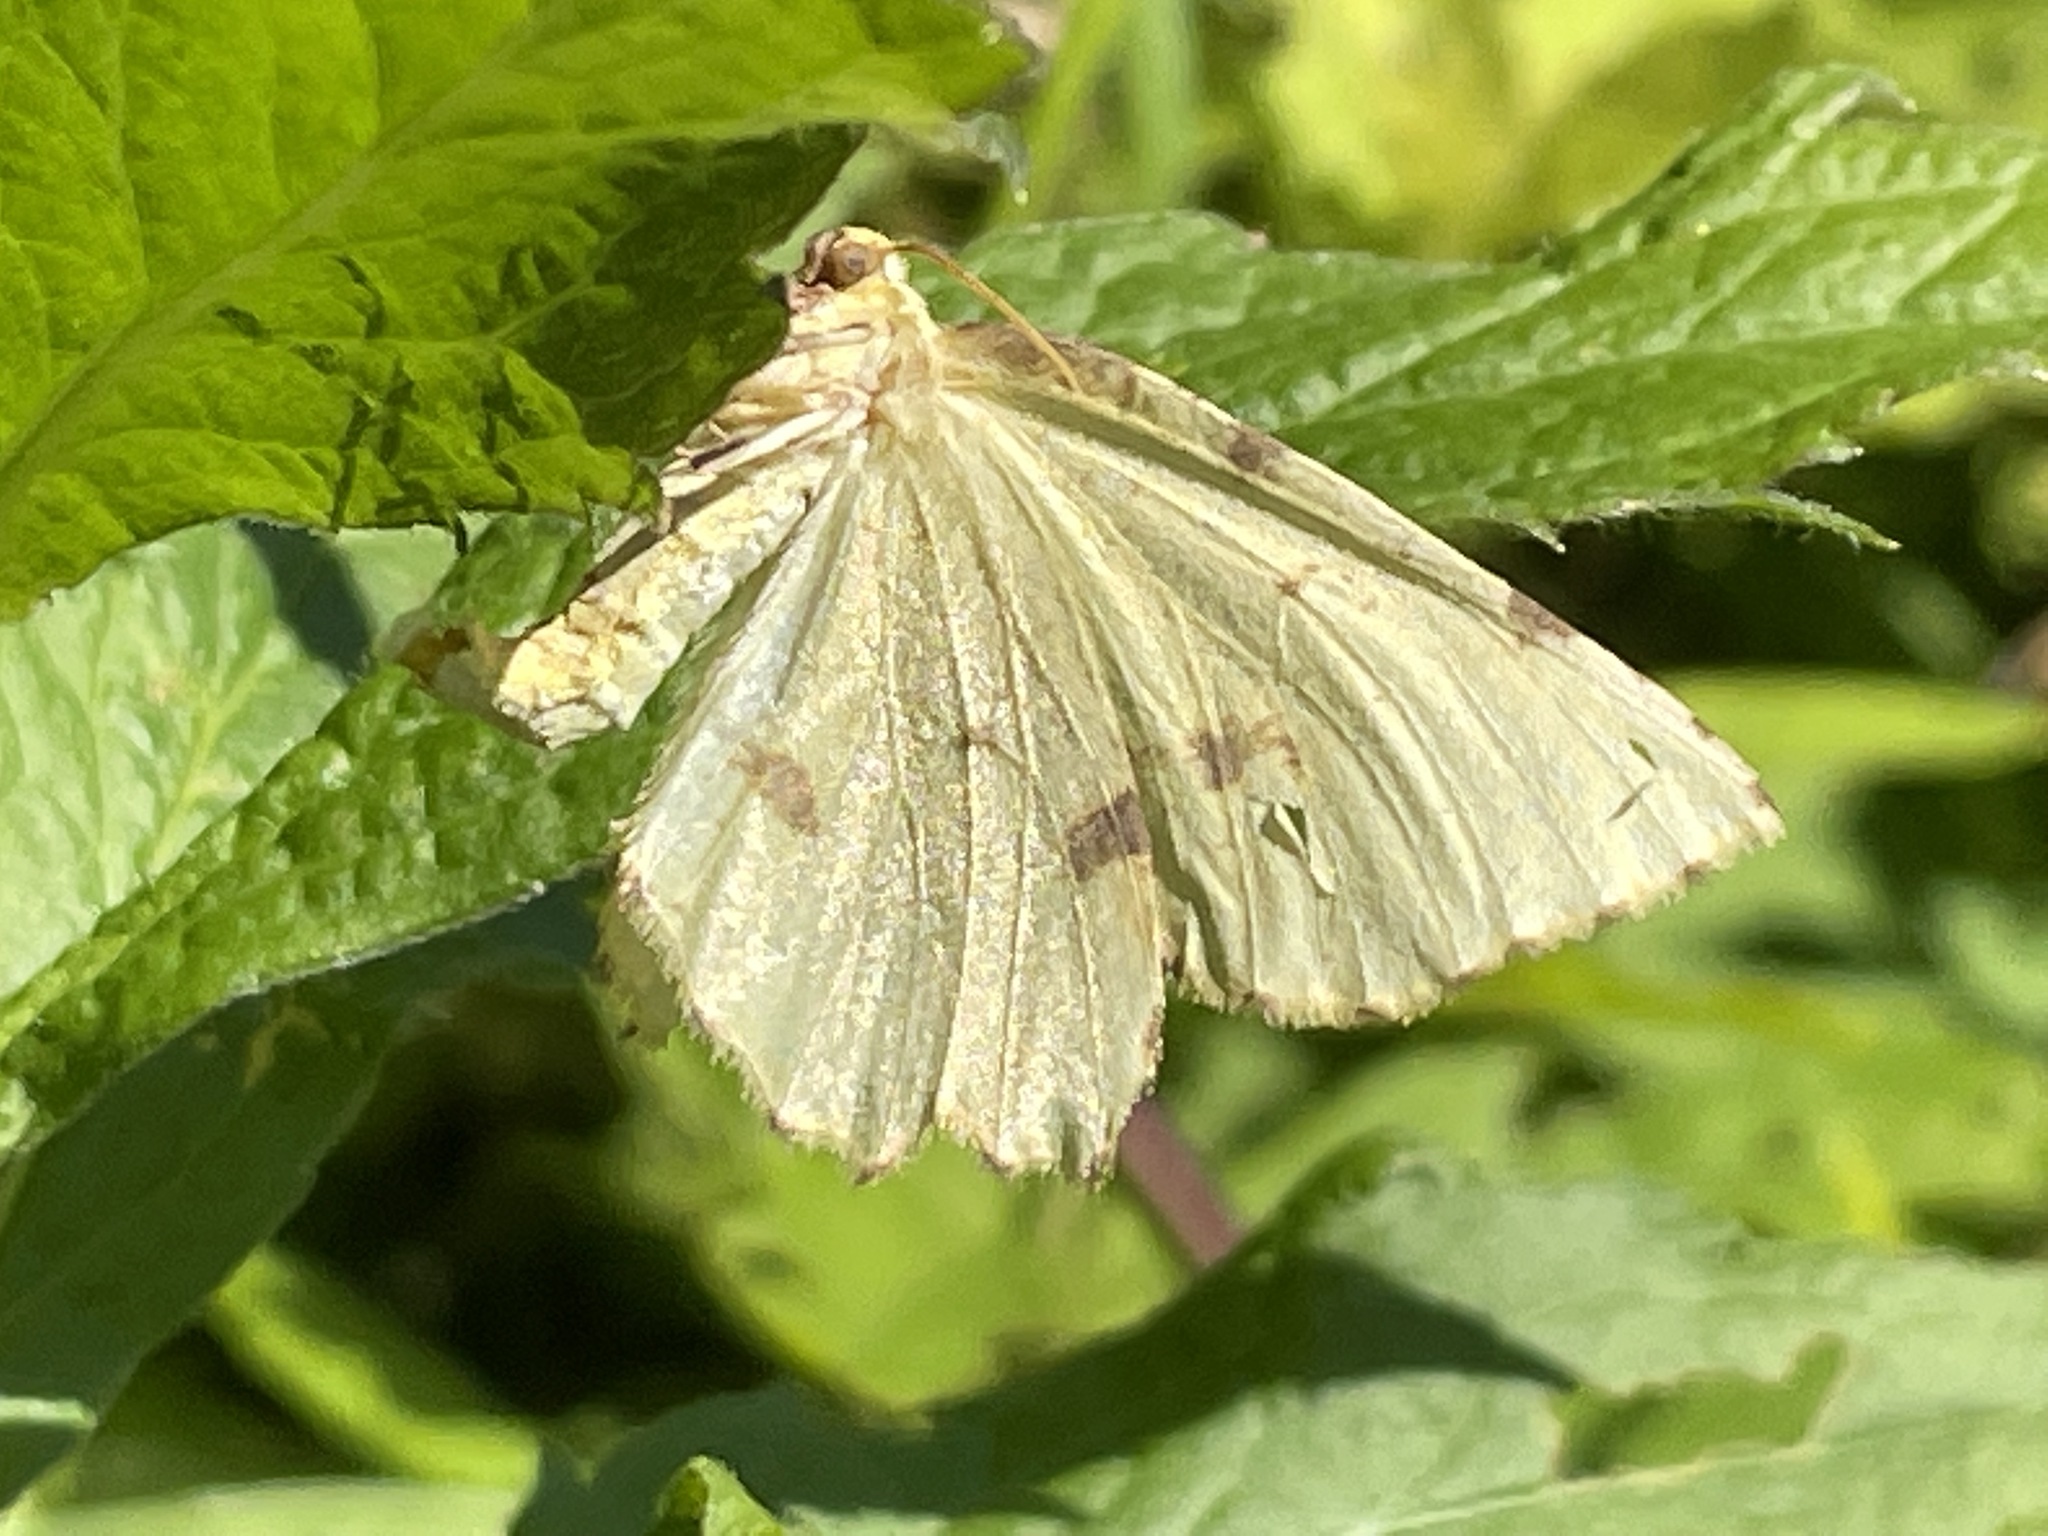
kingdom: Animalia
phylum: Arthropoda
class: Insecta
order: Lepidoptera
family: Geometridae
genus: Xanthotype
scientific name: Xanthotype
